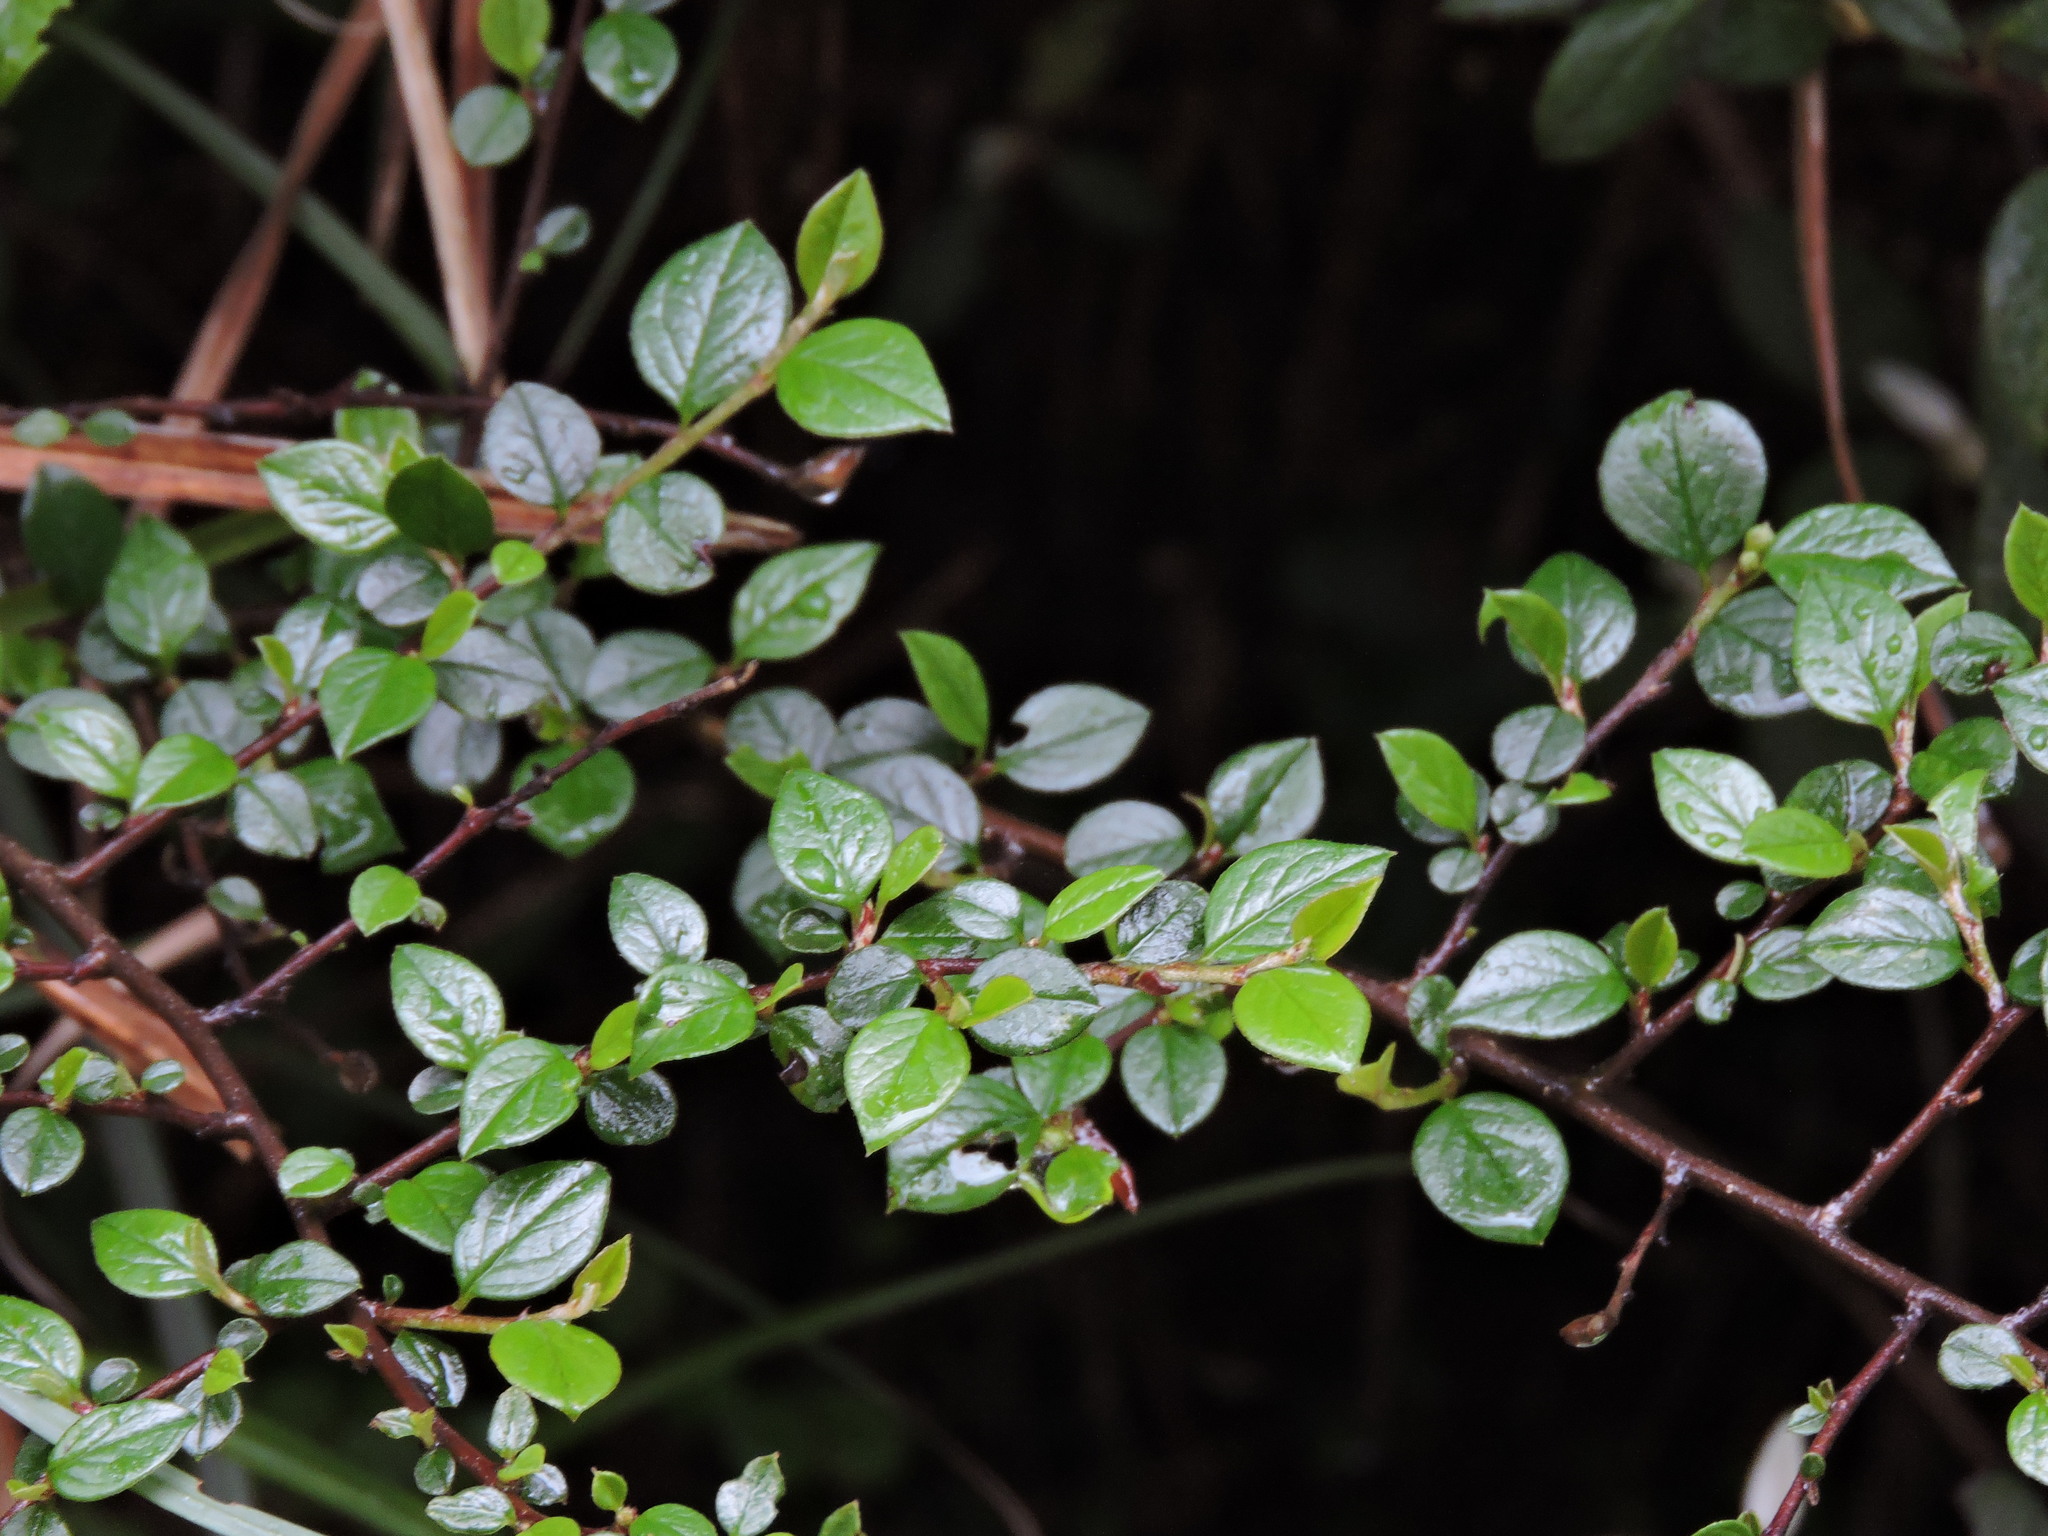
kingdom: Plantae
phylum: Tracheophyta
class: Magnoliopsida
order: Rosales
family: Rosaceae
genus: Cotoneaster
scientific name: Cotoneaster apiculatus
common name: Cranberry cotoneaster
